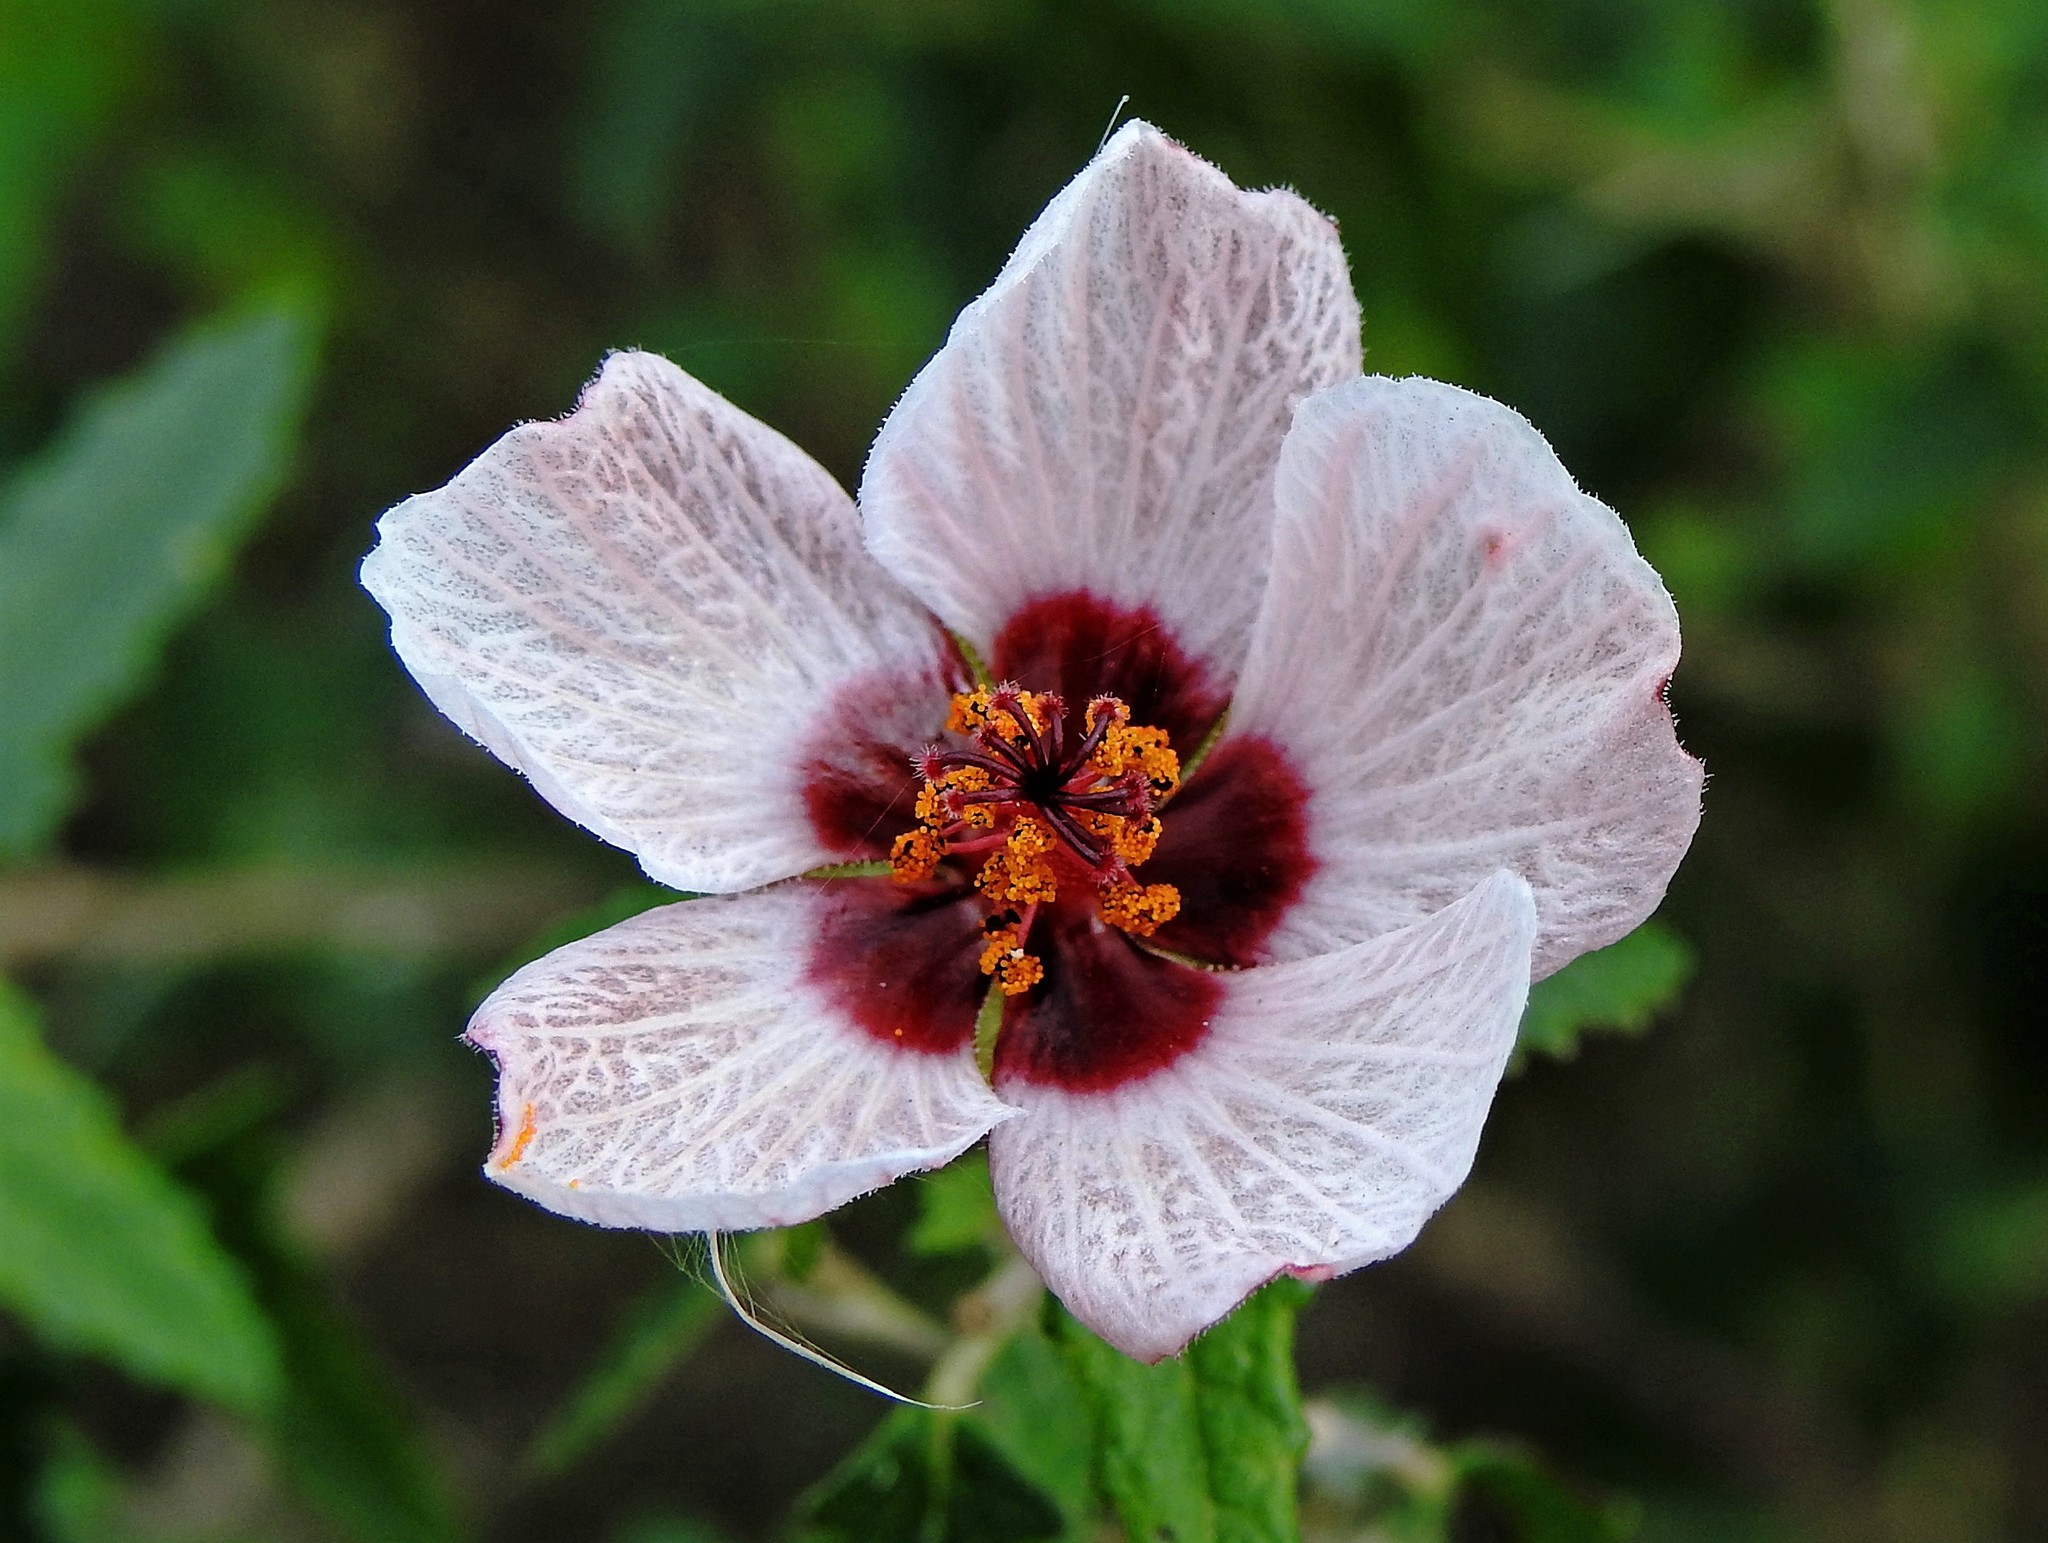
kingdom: Plantae
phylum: Tracheophyta
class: Magnoliopsida
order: Malvales
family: Malvaceae
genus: Pavonia
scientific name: Pavonia hastata
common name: Spearleaf swampmallow
